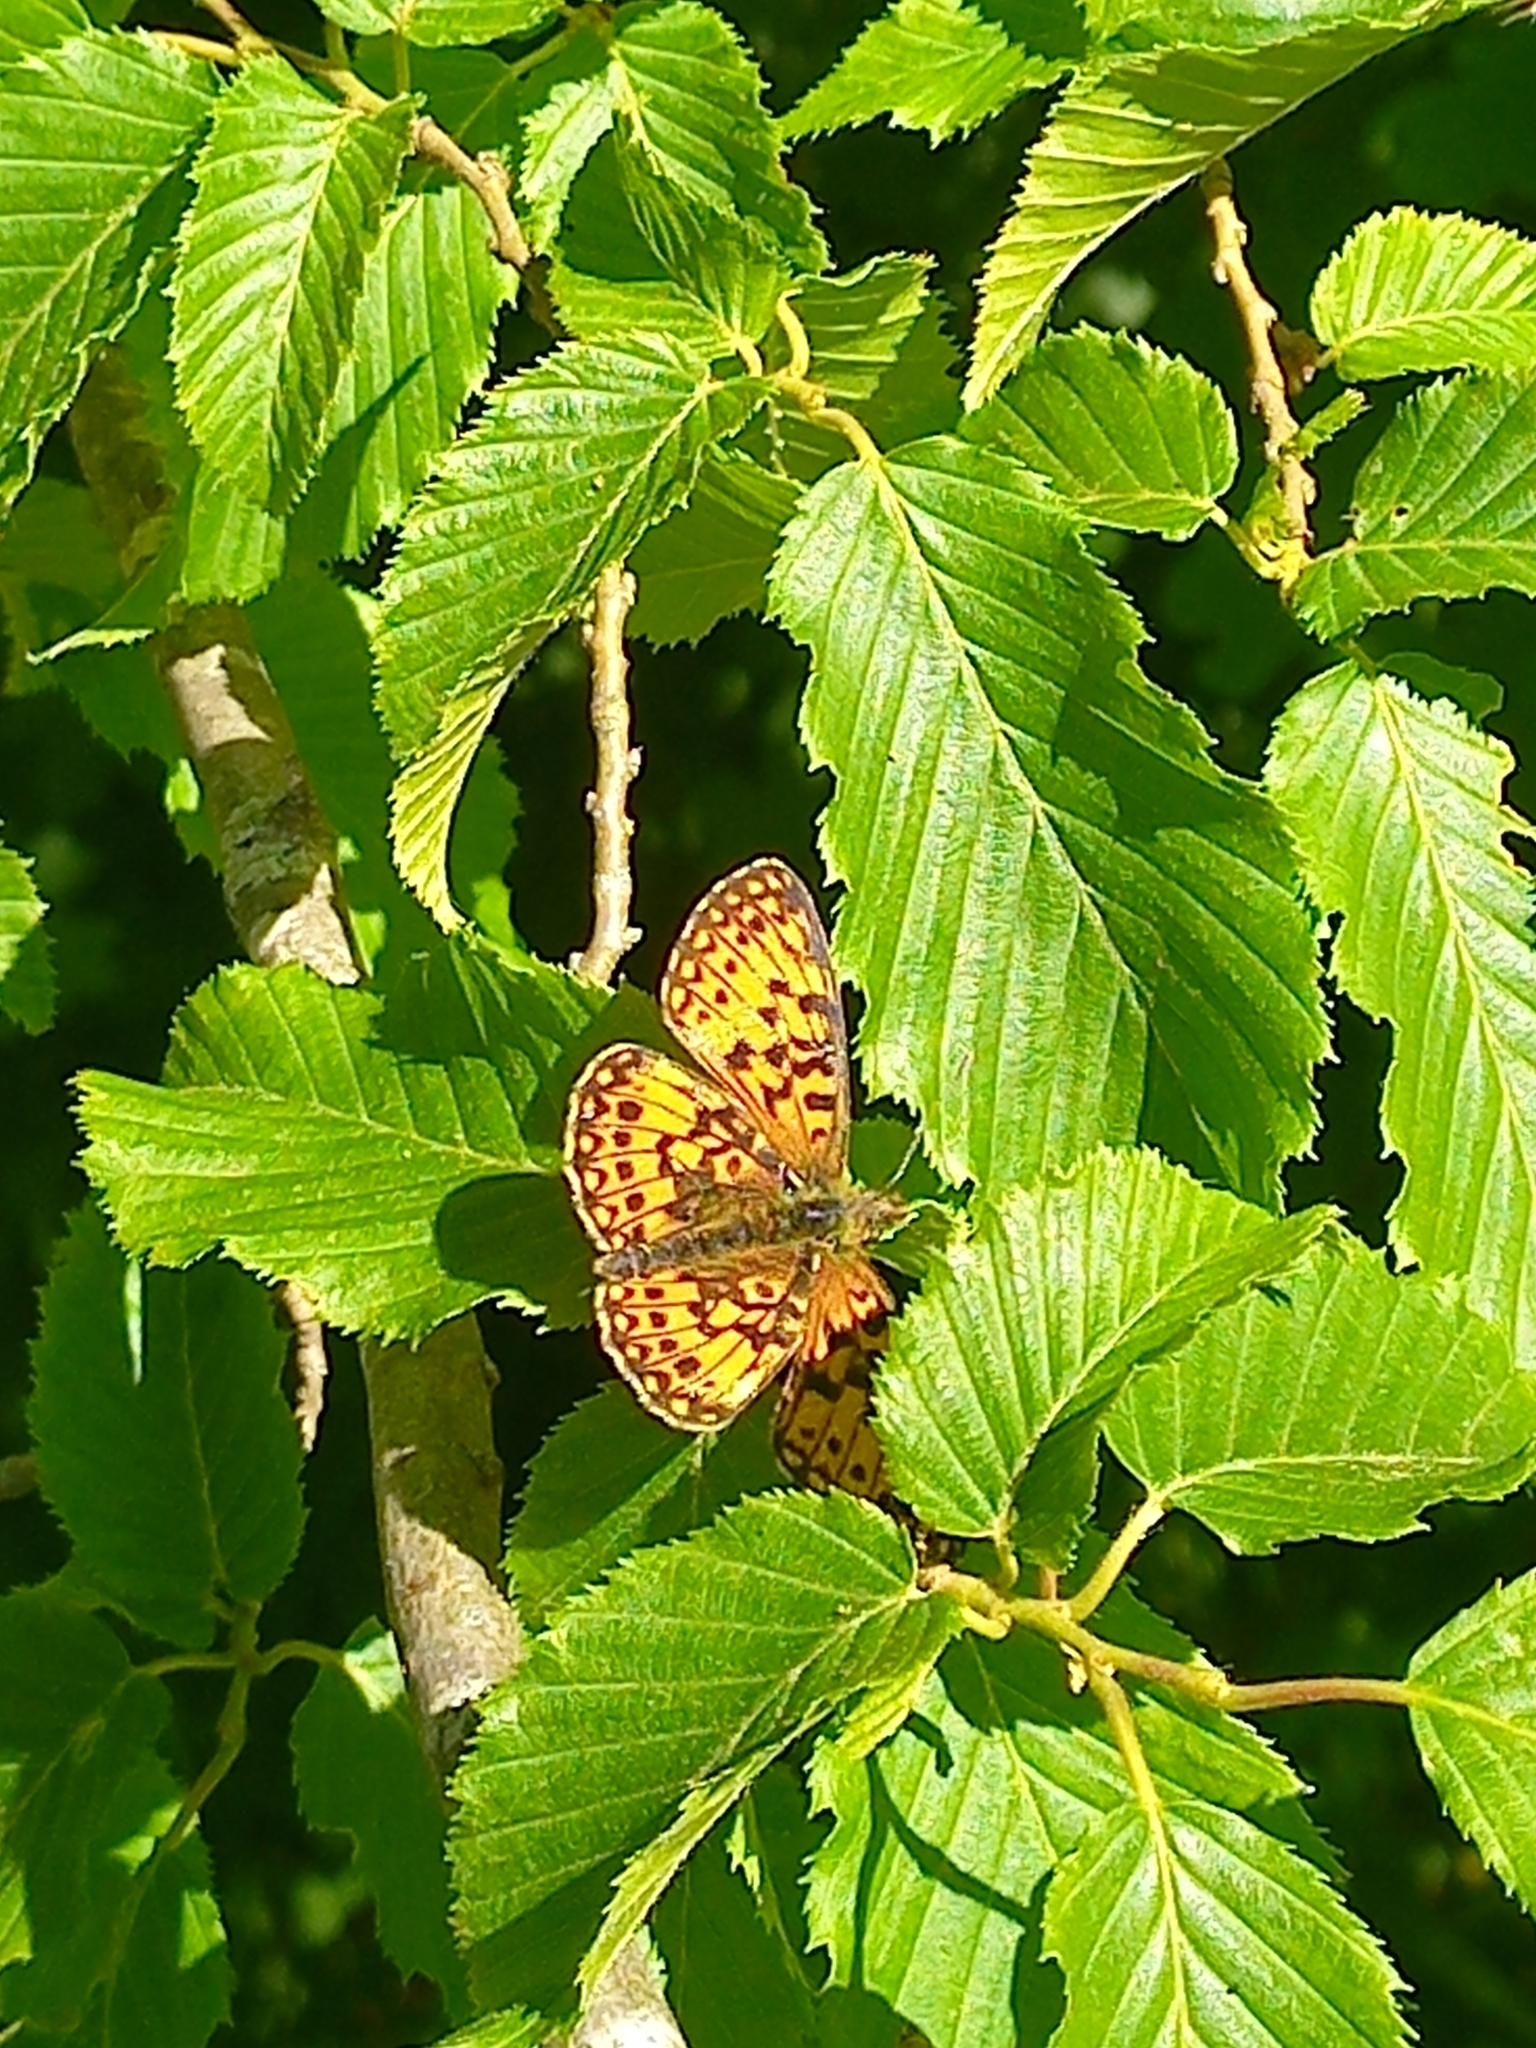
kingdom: Animalia
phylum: Arthropoda
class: Insecta
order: Lepidoptera
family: Nymphalidae
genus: Boloria
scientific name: Boloria selene
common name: Small pearl-bordered fritillary
